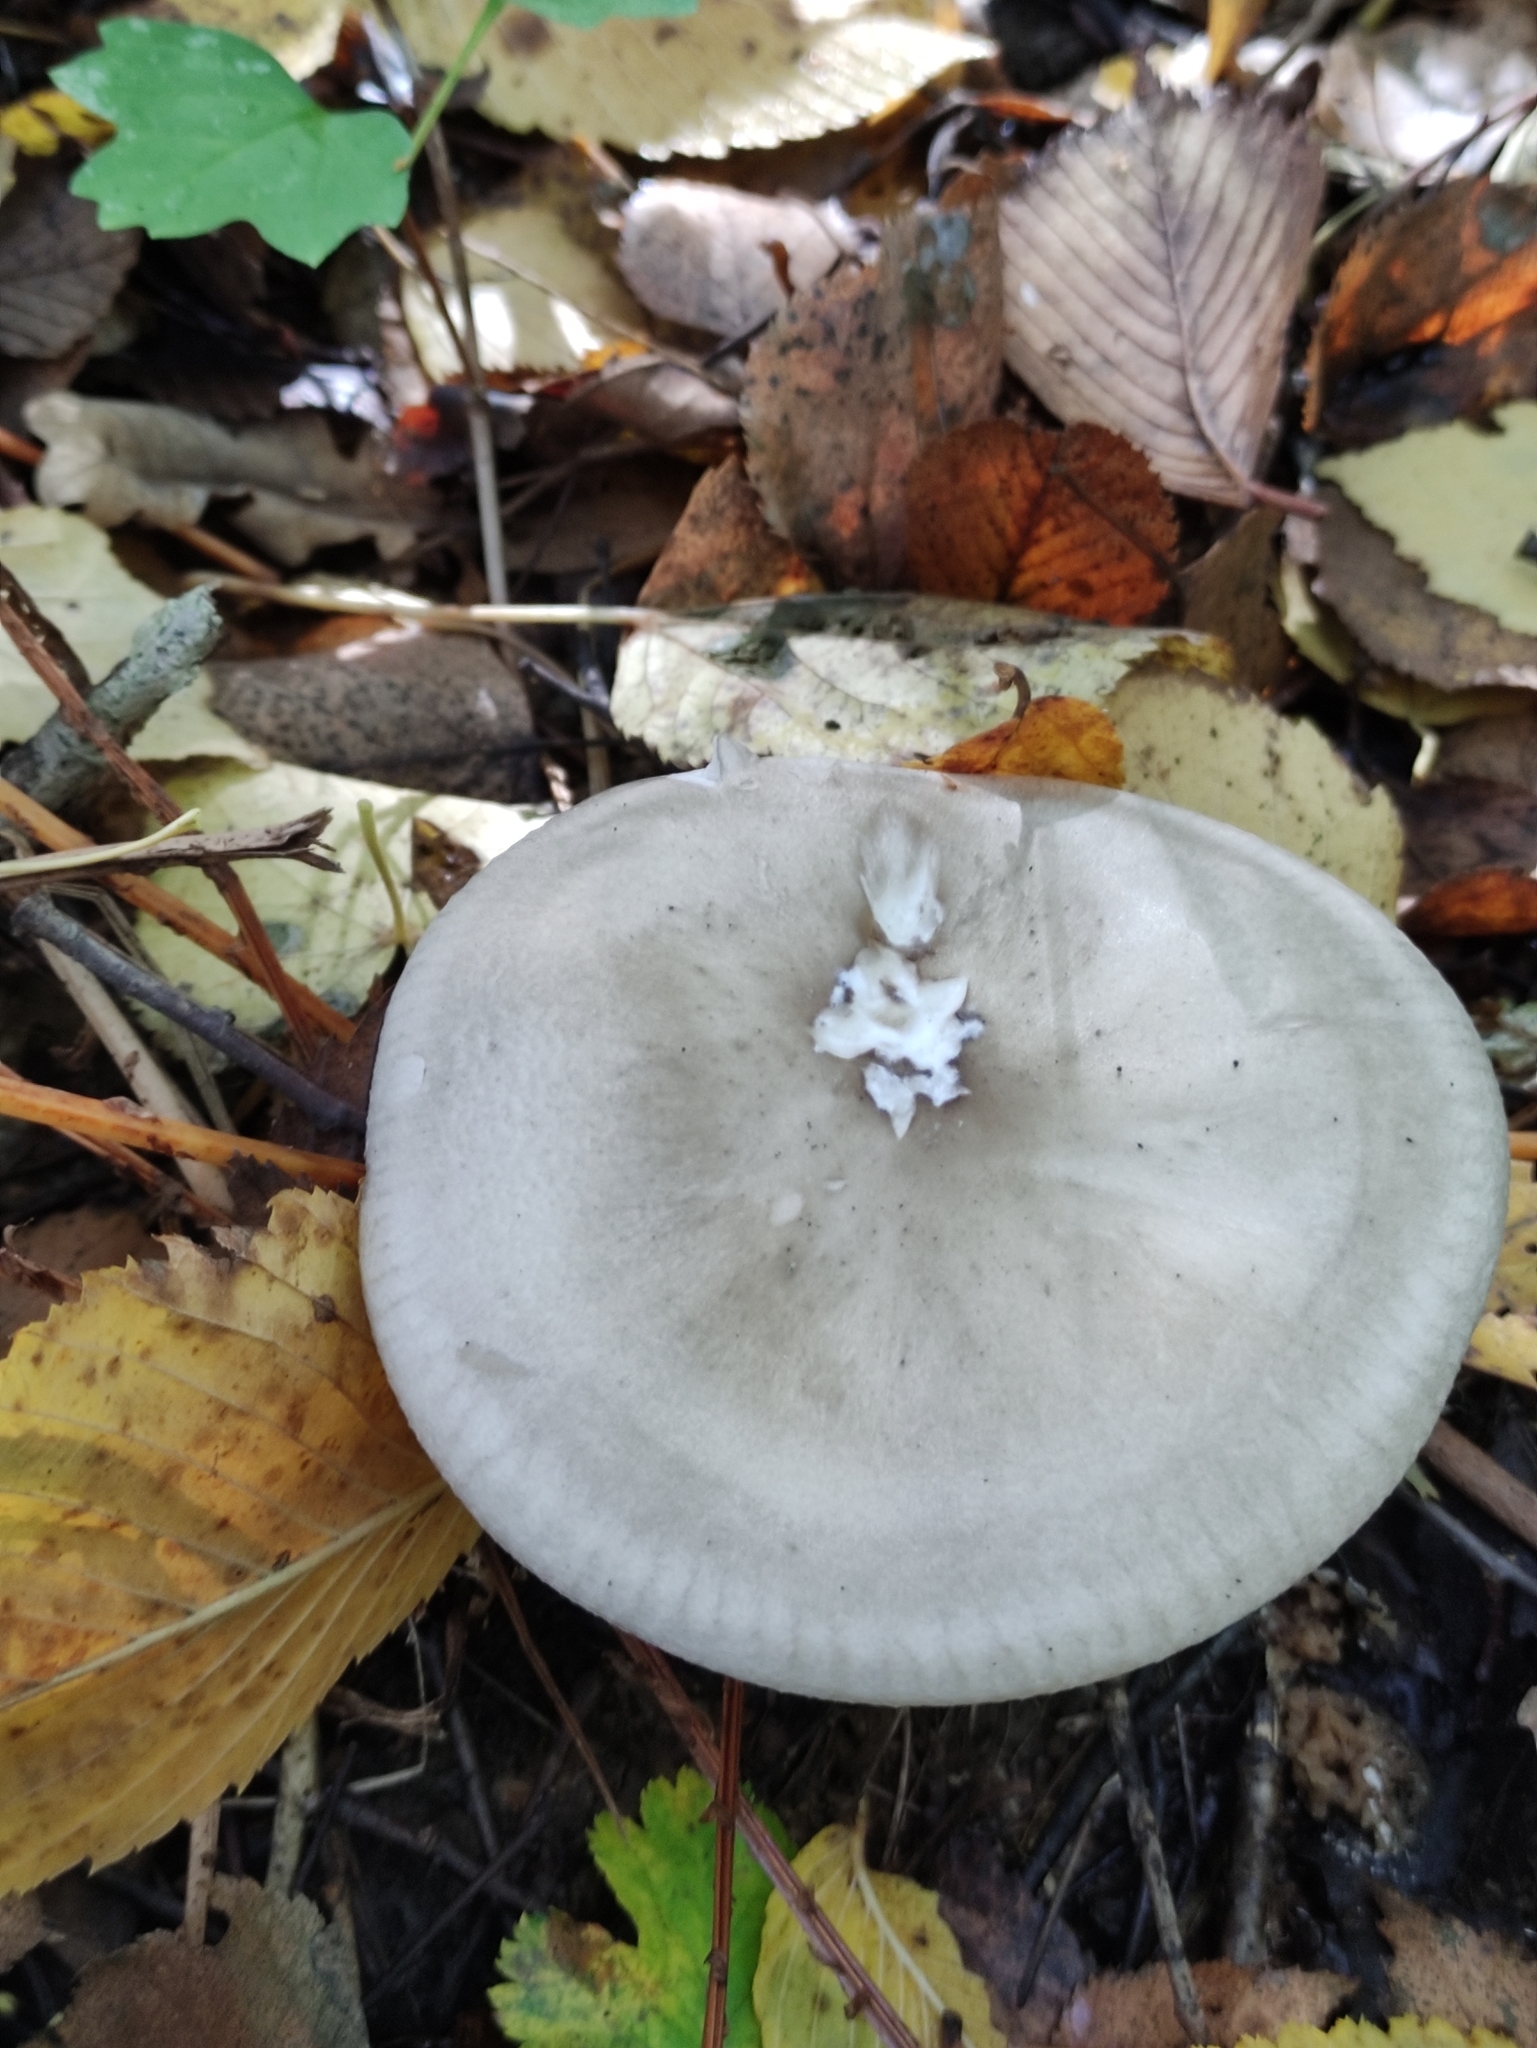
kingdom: Fungi
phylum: Basidiomycota
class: Agaricomycetes
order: Agaricales
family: Tricholomataceae
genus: Clitocybe
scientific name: Clitocybe nebularis
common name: Clouded agaric
